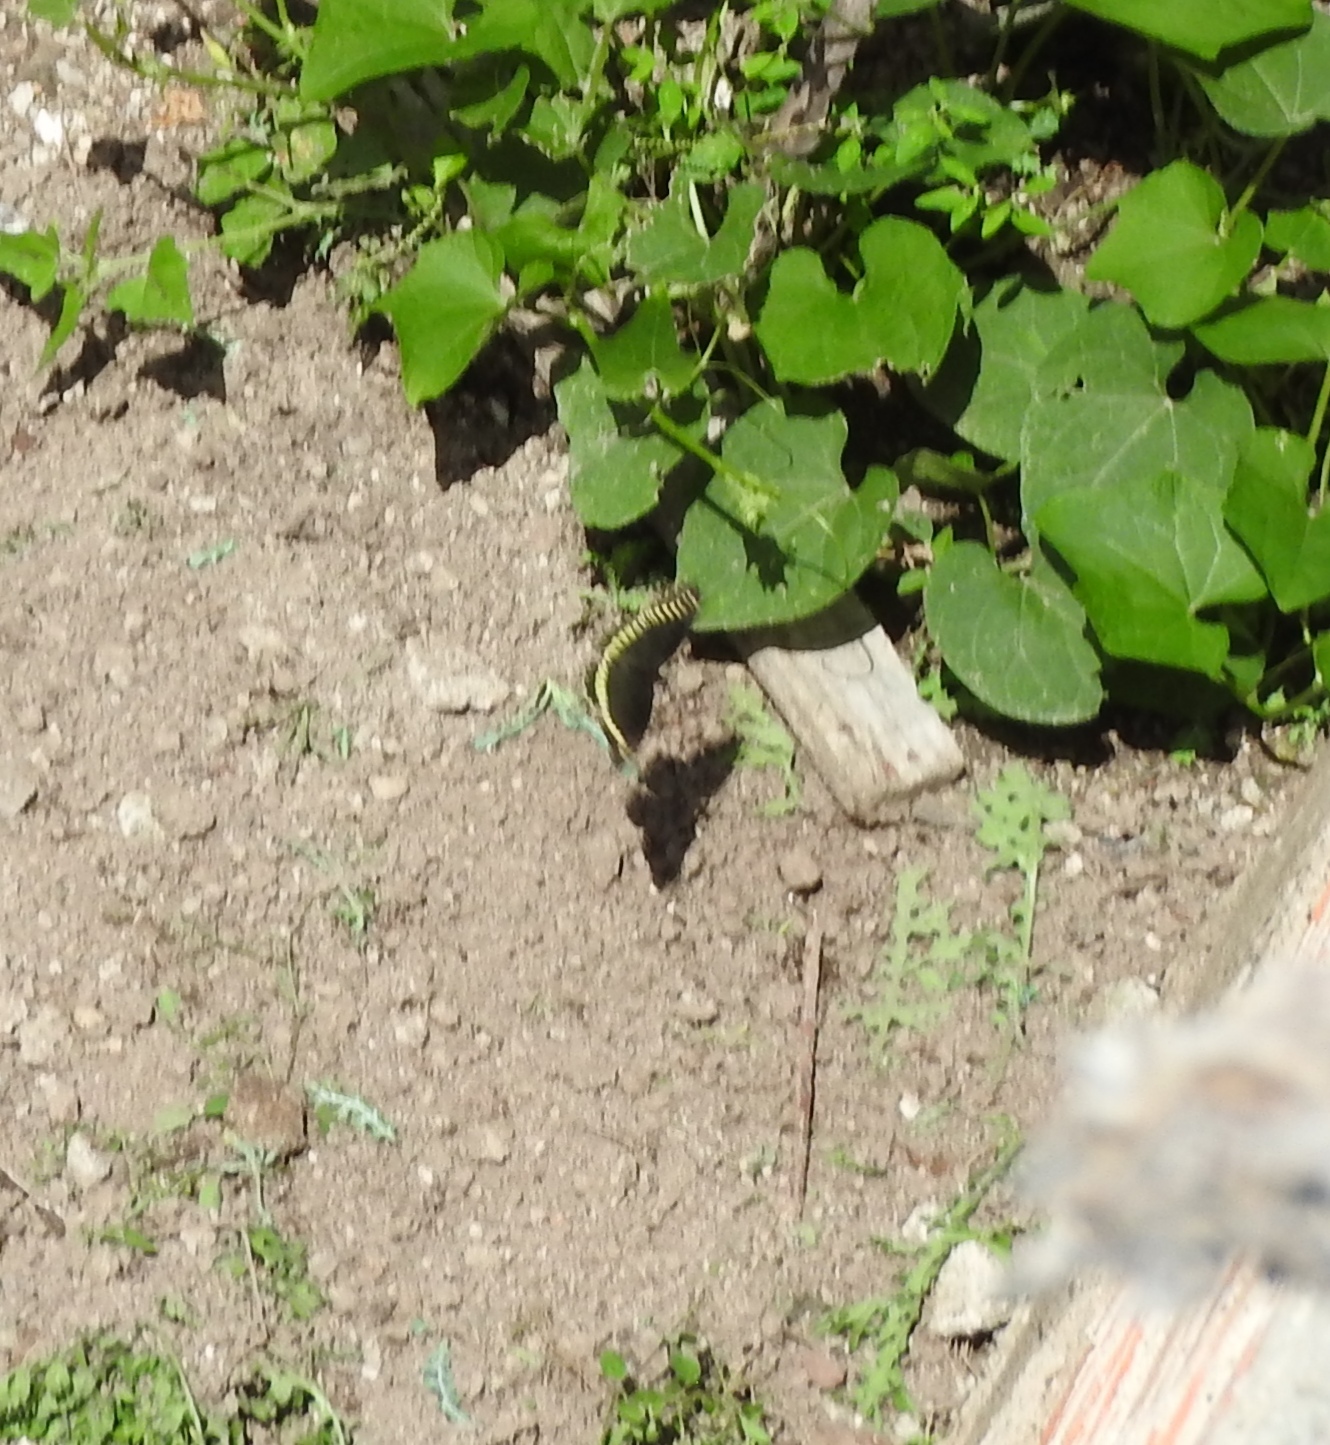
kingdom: Animalia
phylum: Arthropoda
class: Insecta
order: Lepidoptera
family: Papilionidae
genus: Battus
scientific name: Battus polydamas
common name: Polydamas swallowtail
